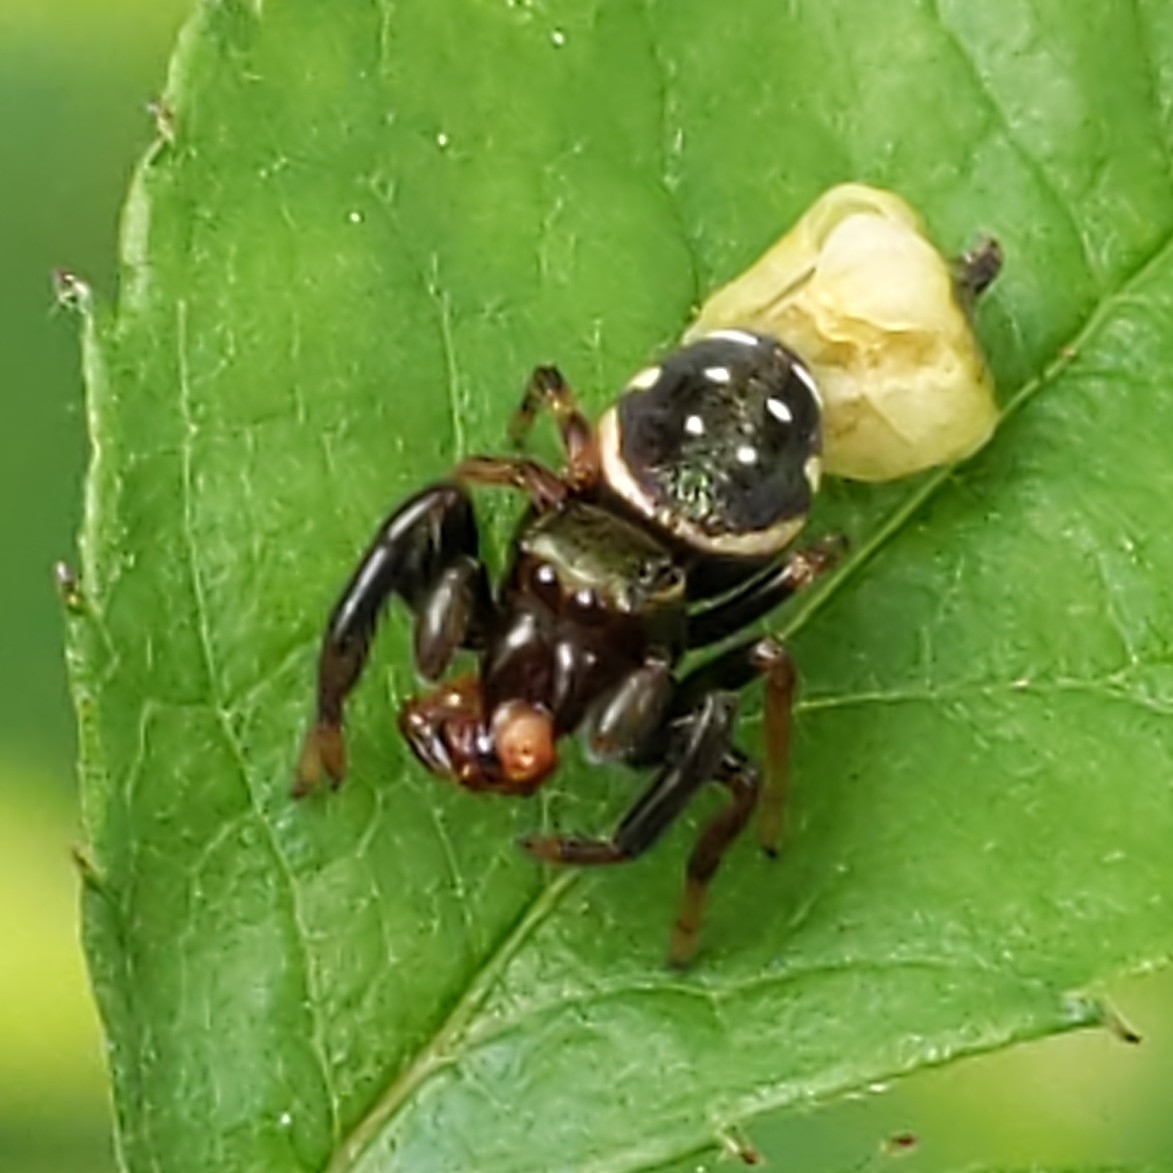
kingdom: Animalia
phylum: Arthropoda
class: Arachnida
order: Araneae
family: Salticidae
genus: Paraphidippus
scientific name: Paraphidippus aurantius
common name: Jumping spiders
